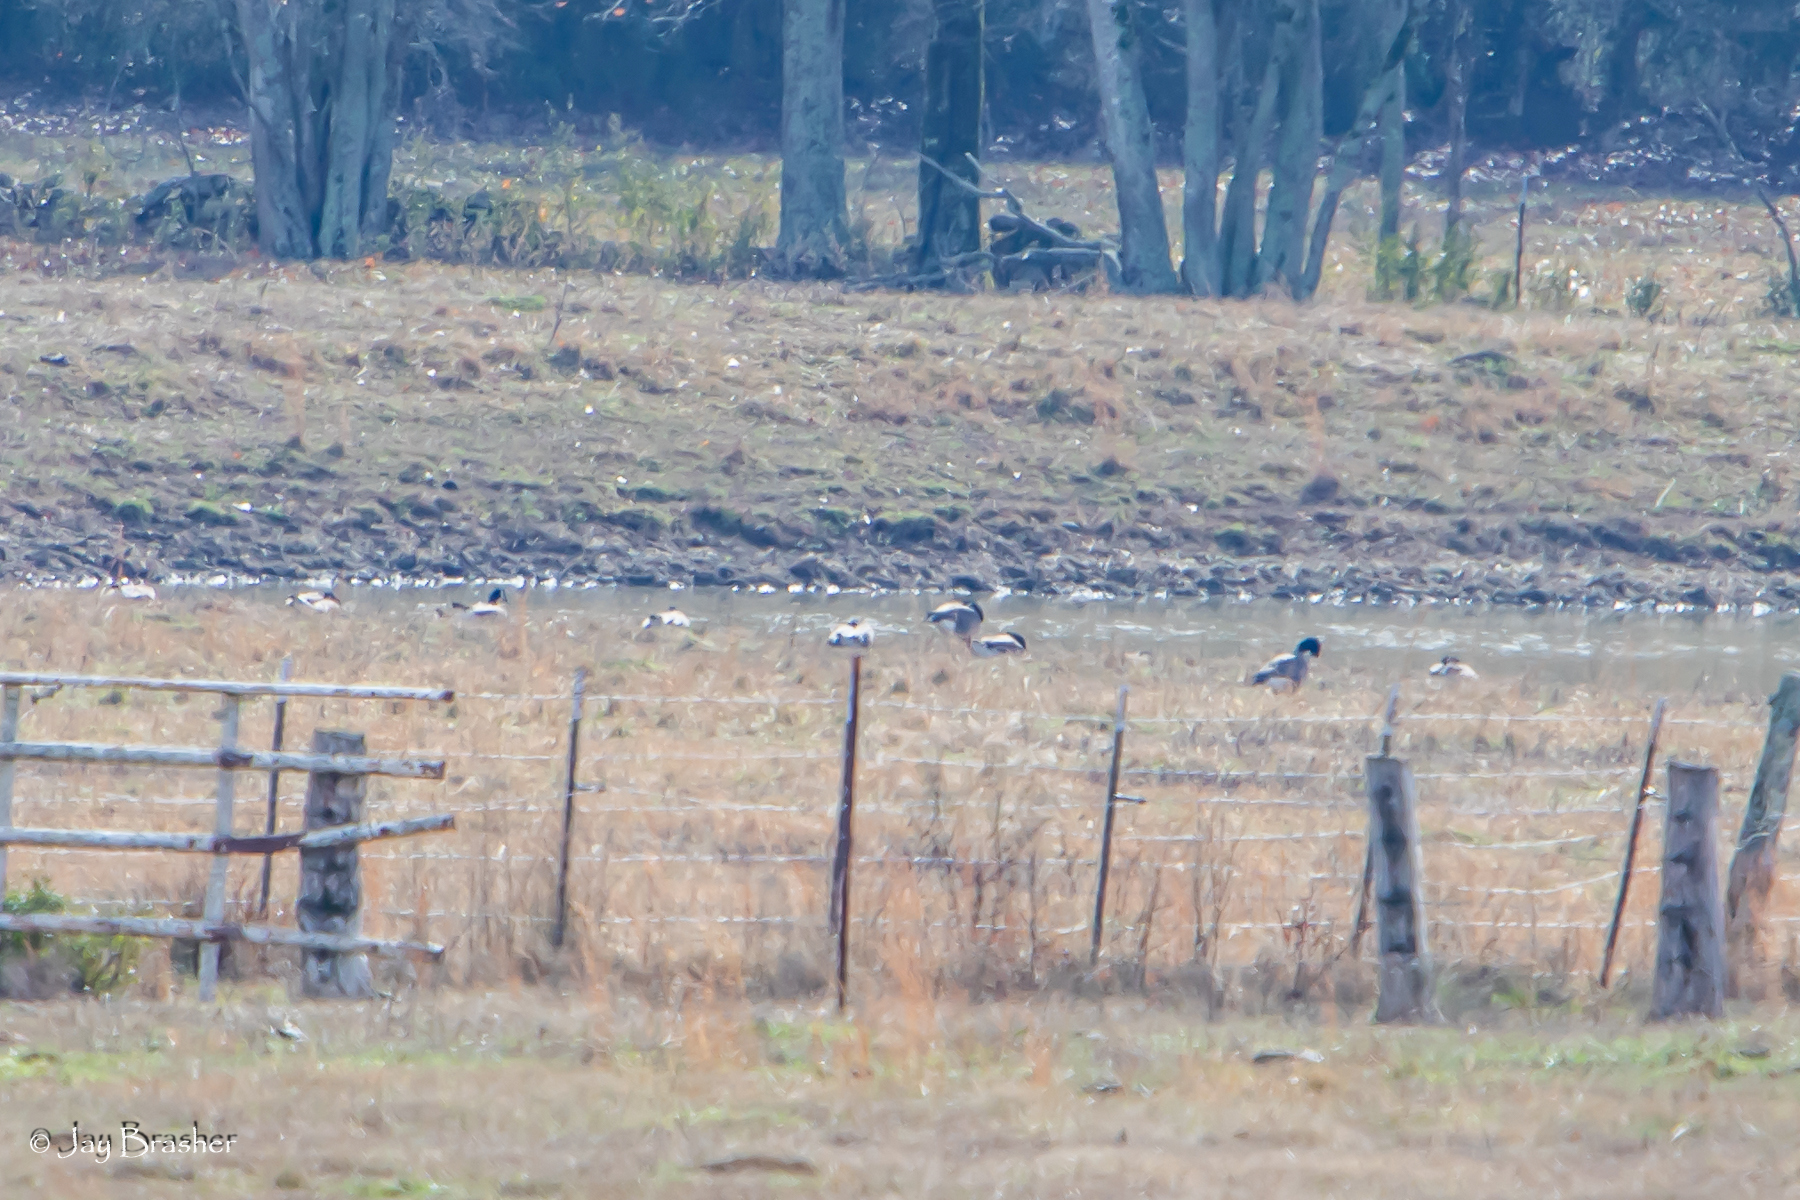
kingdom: Animalia
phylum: Chordata
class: Aves
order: Anseriformes
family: Anatidae
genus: Branta
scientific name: Branta canadensis
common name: Canada goose
